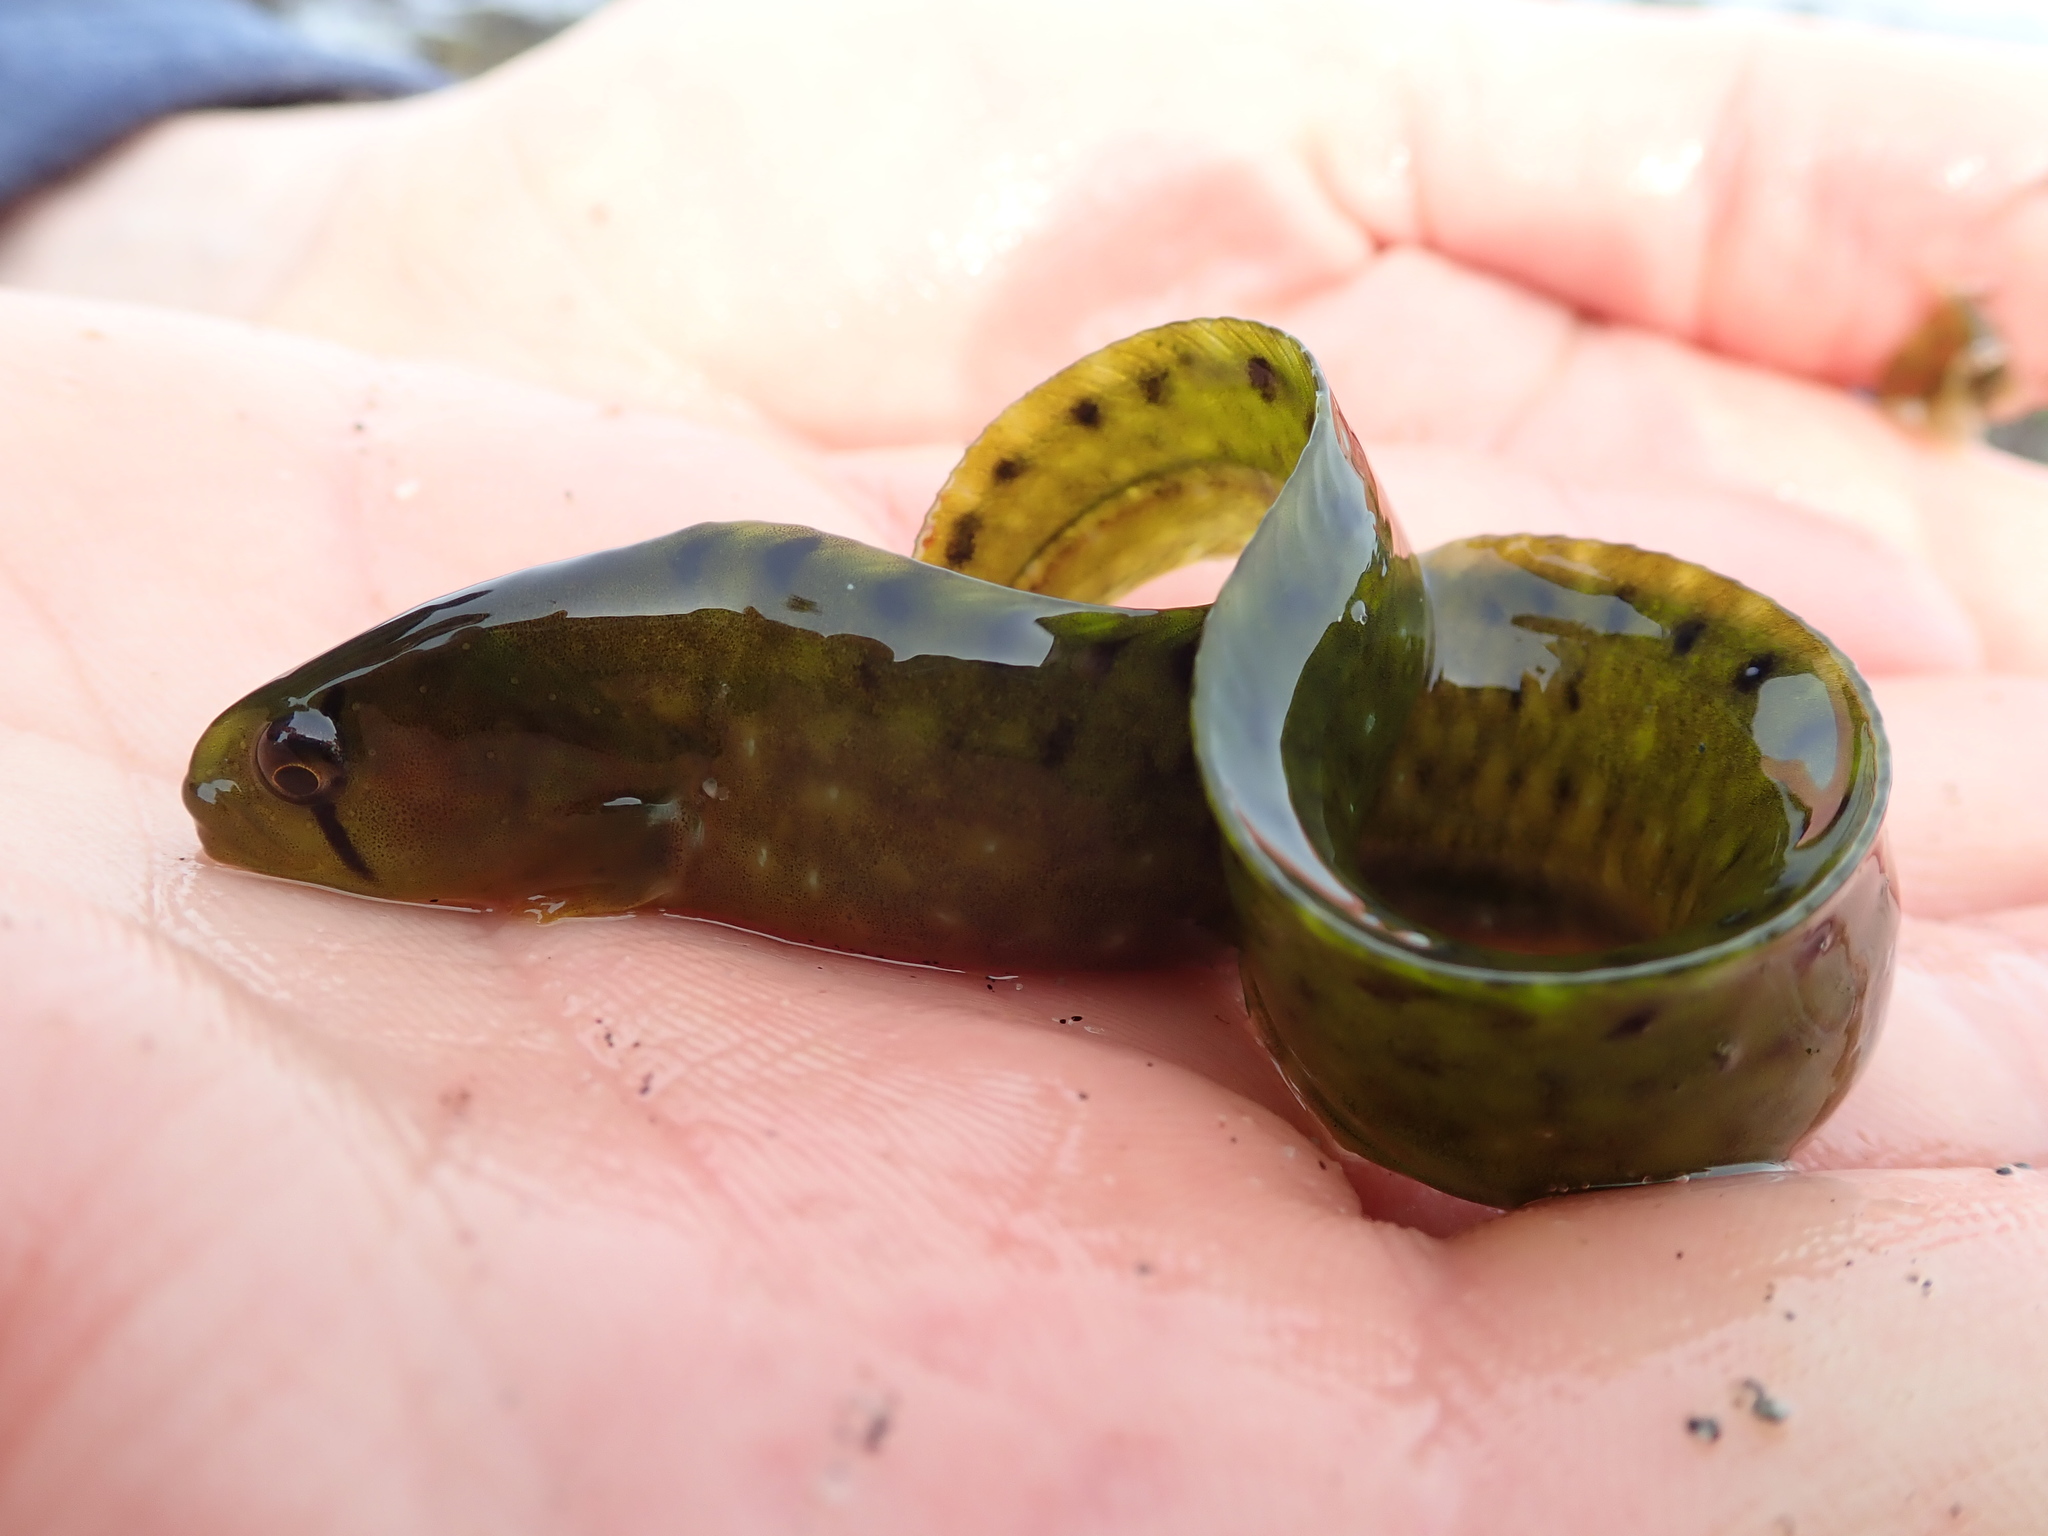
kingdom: Animalia
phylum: Chordata
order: Perciformes
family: Pholidae
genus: Apodichthys
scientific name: Apodichthys flavidus
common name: Penpoint gunnel
